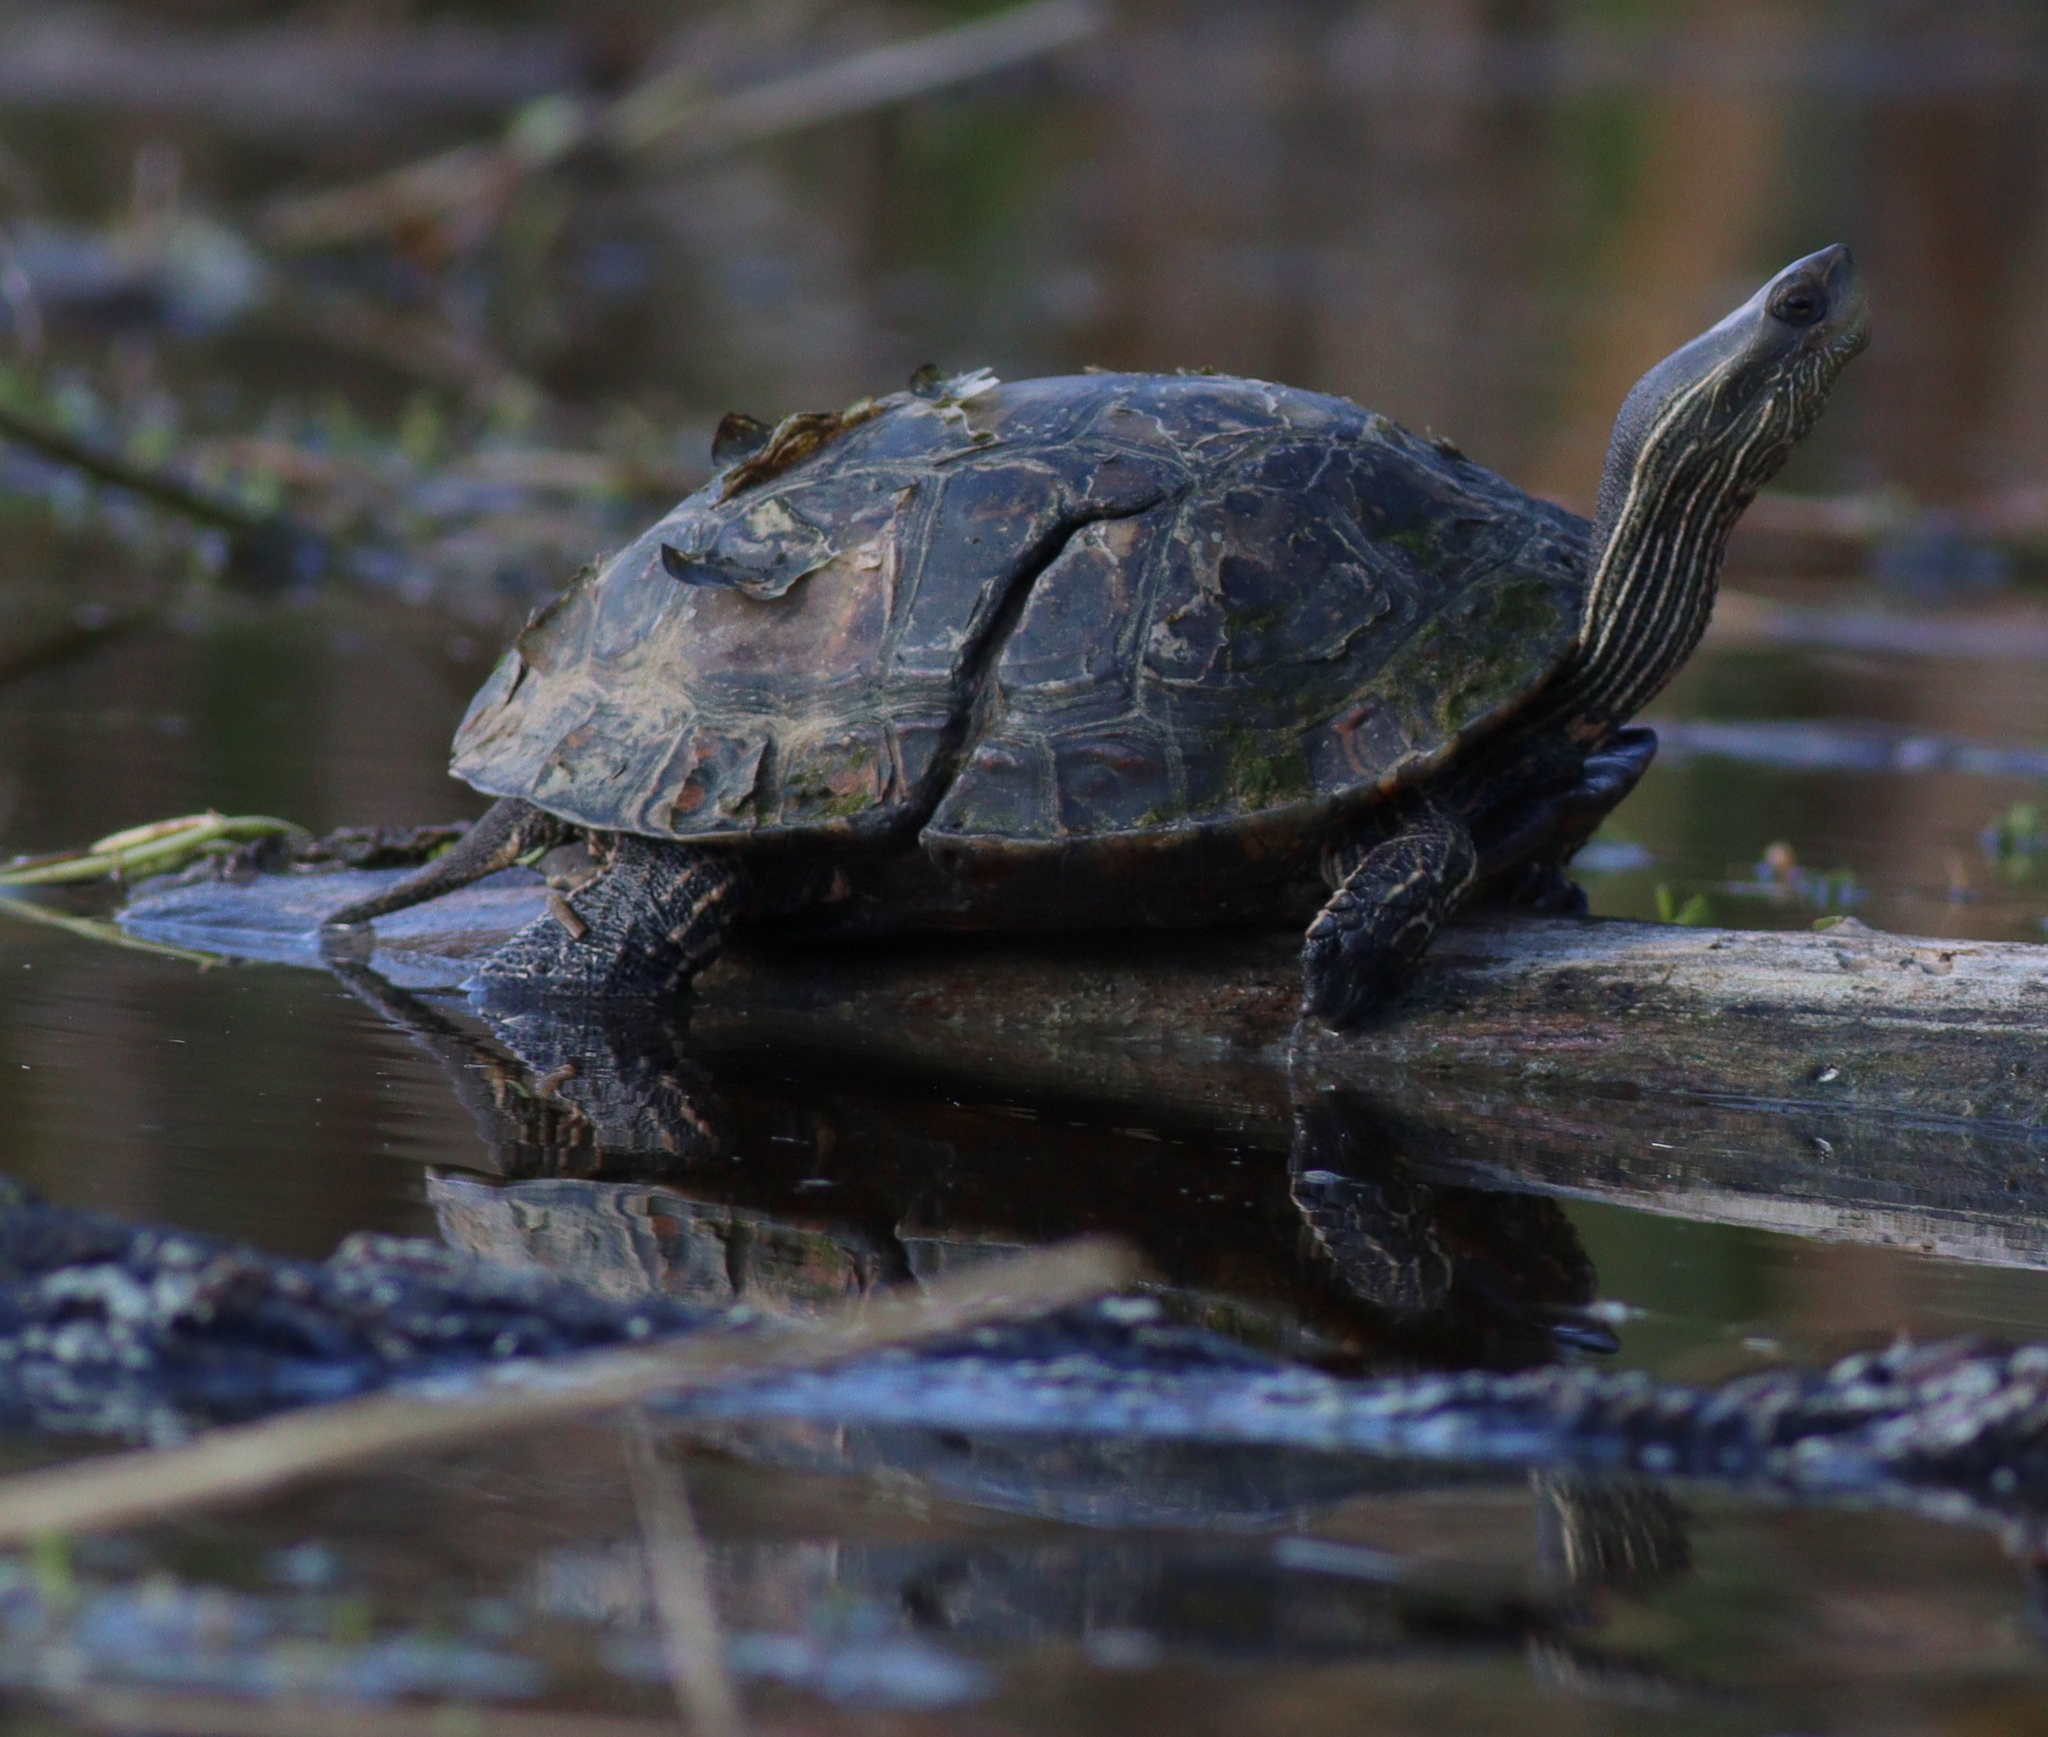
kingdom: Animalia
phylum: Chordata
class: Testudines
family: Geoemydidae
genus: Mauremys
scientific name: Mauremys rivulata
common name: Western caspian turtle
